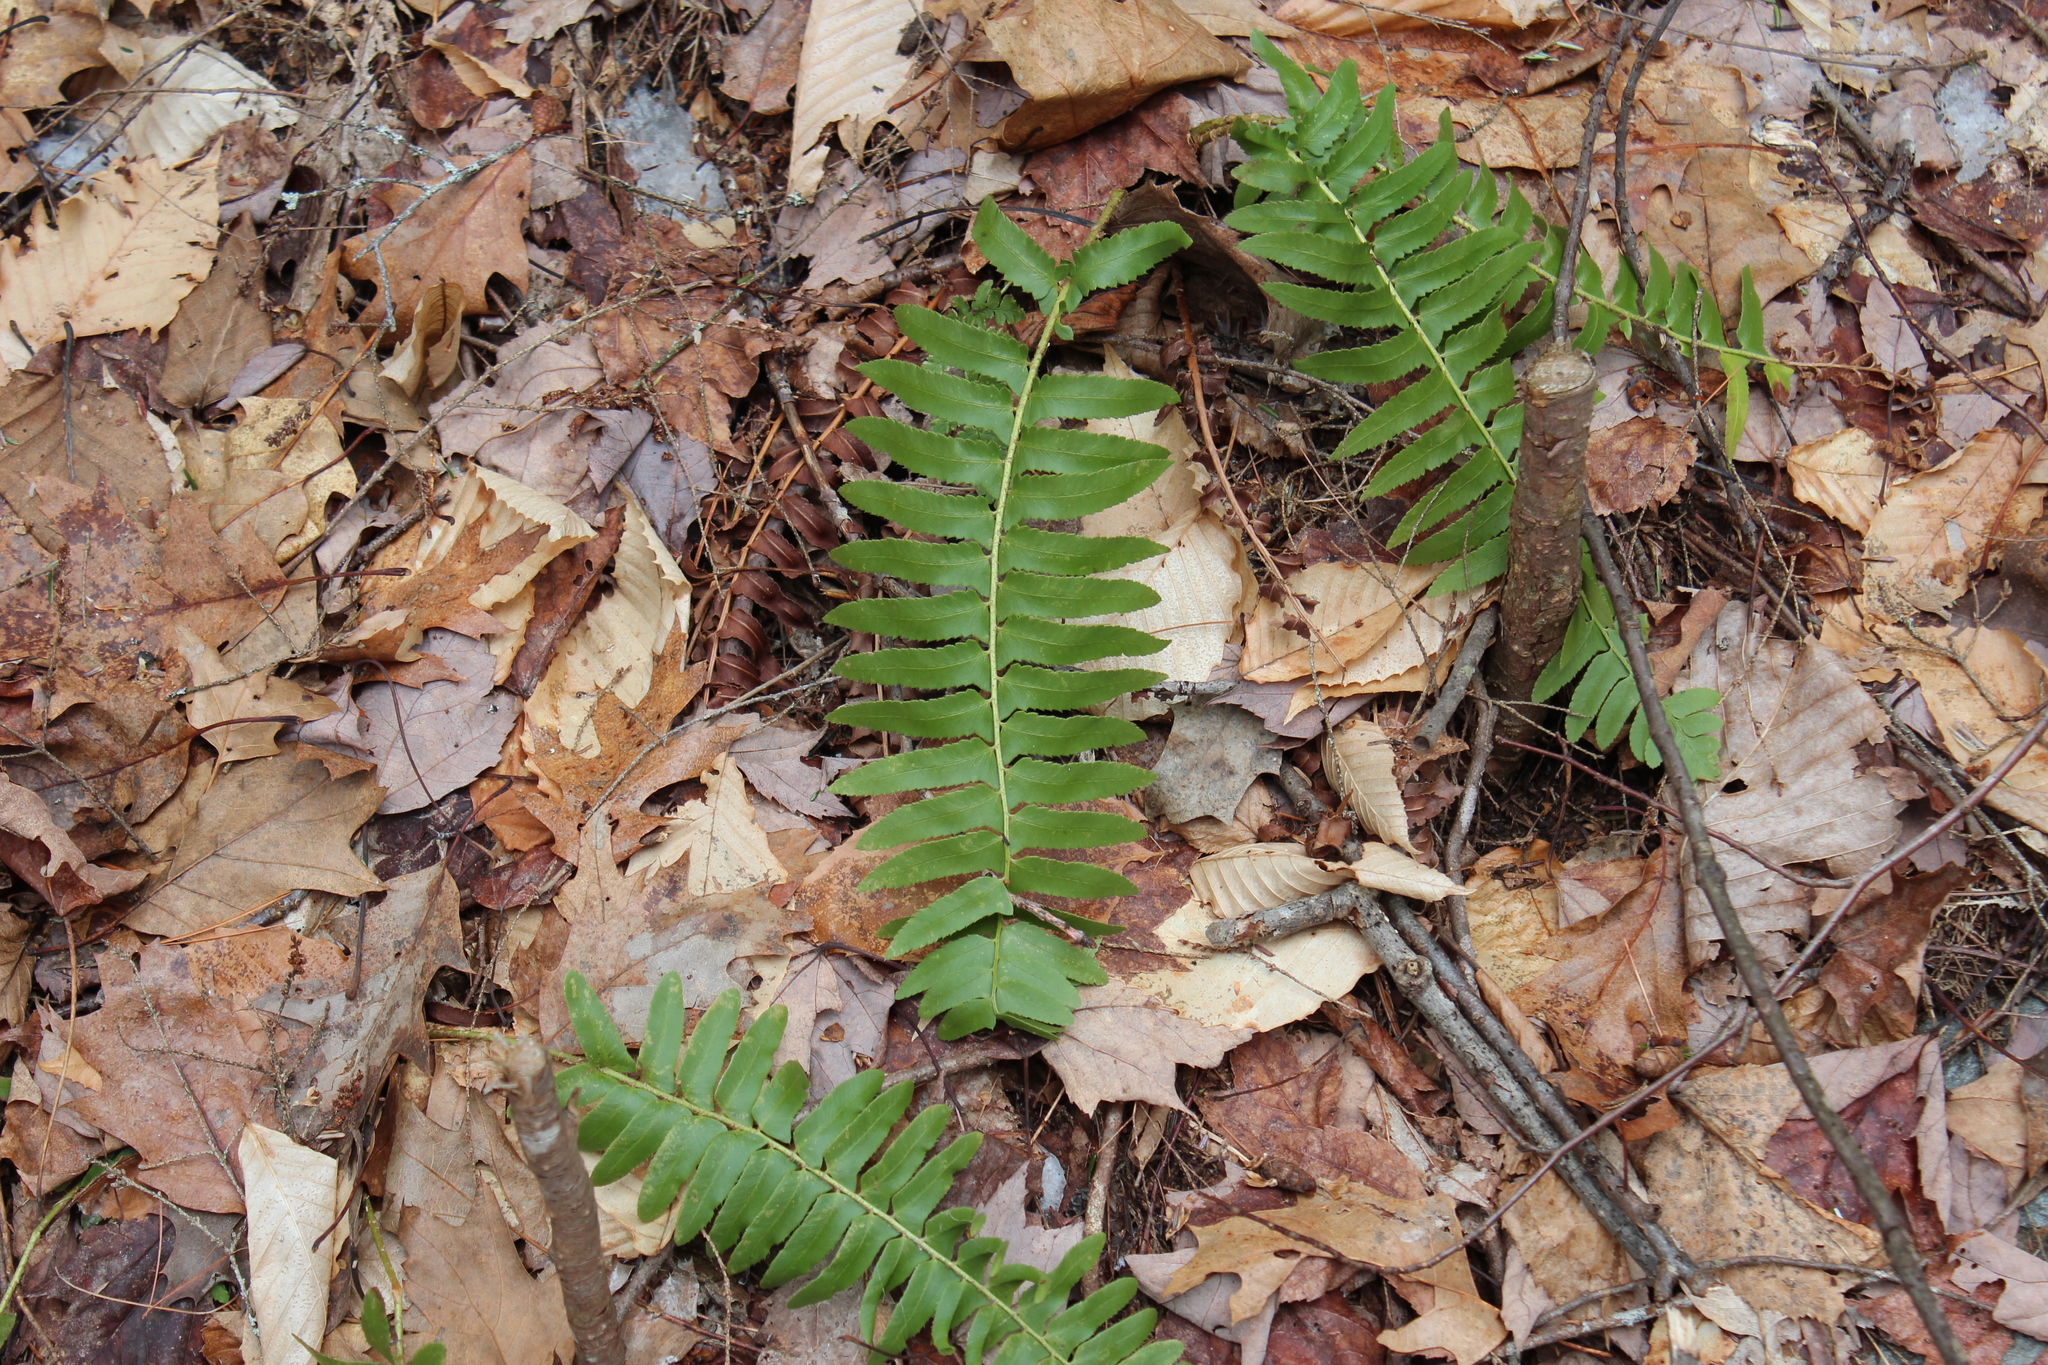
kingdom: Plantae
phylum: Tracheophyta
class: Polypodiopsida
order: Polypodiales
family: Dryopteridaceae
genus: Polystichum
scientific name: Polystichum acrostichoides
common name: Christmas fern
